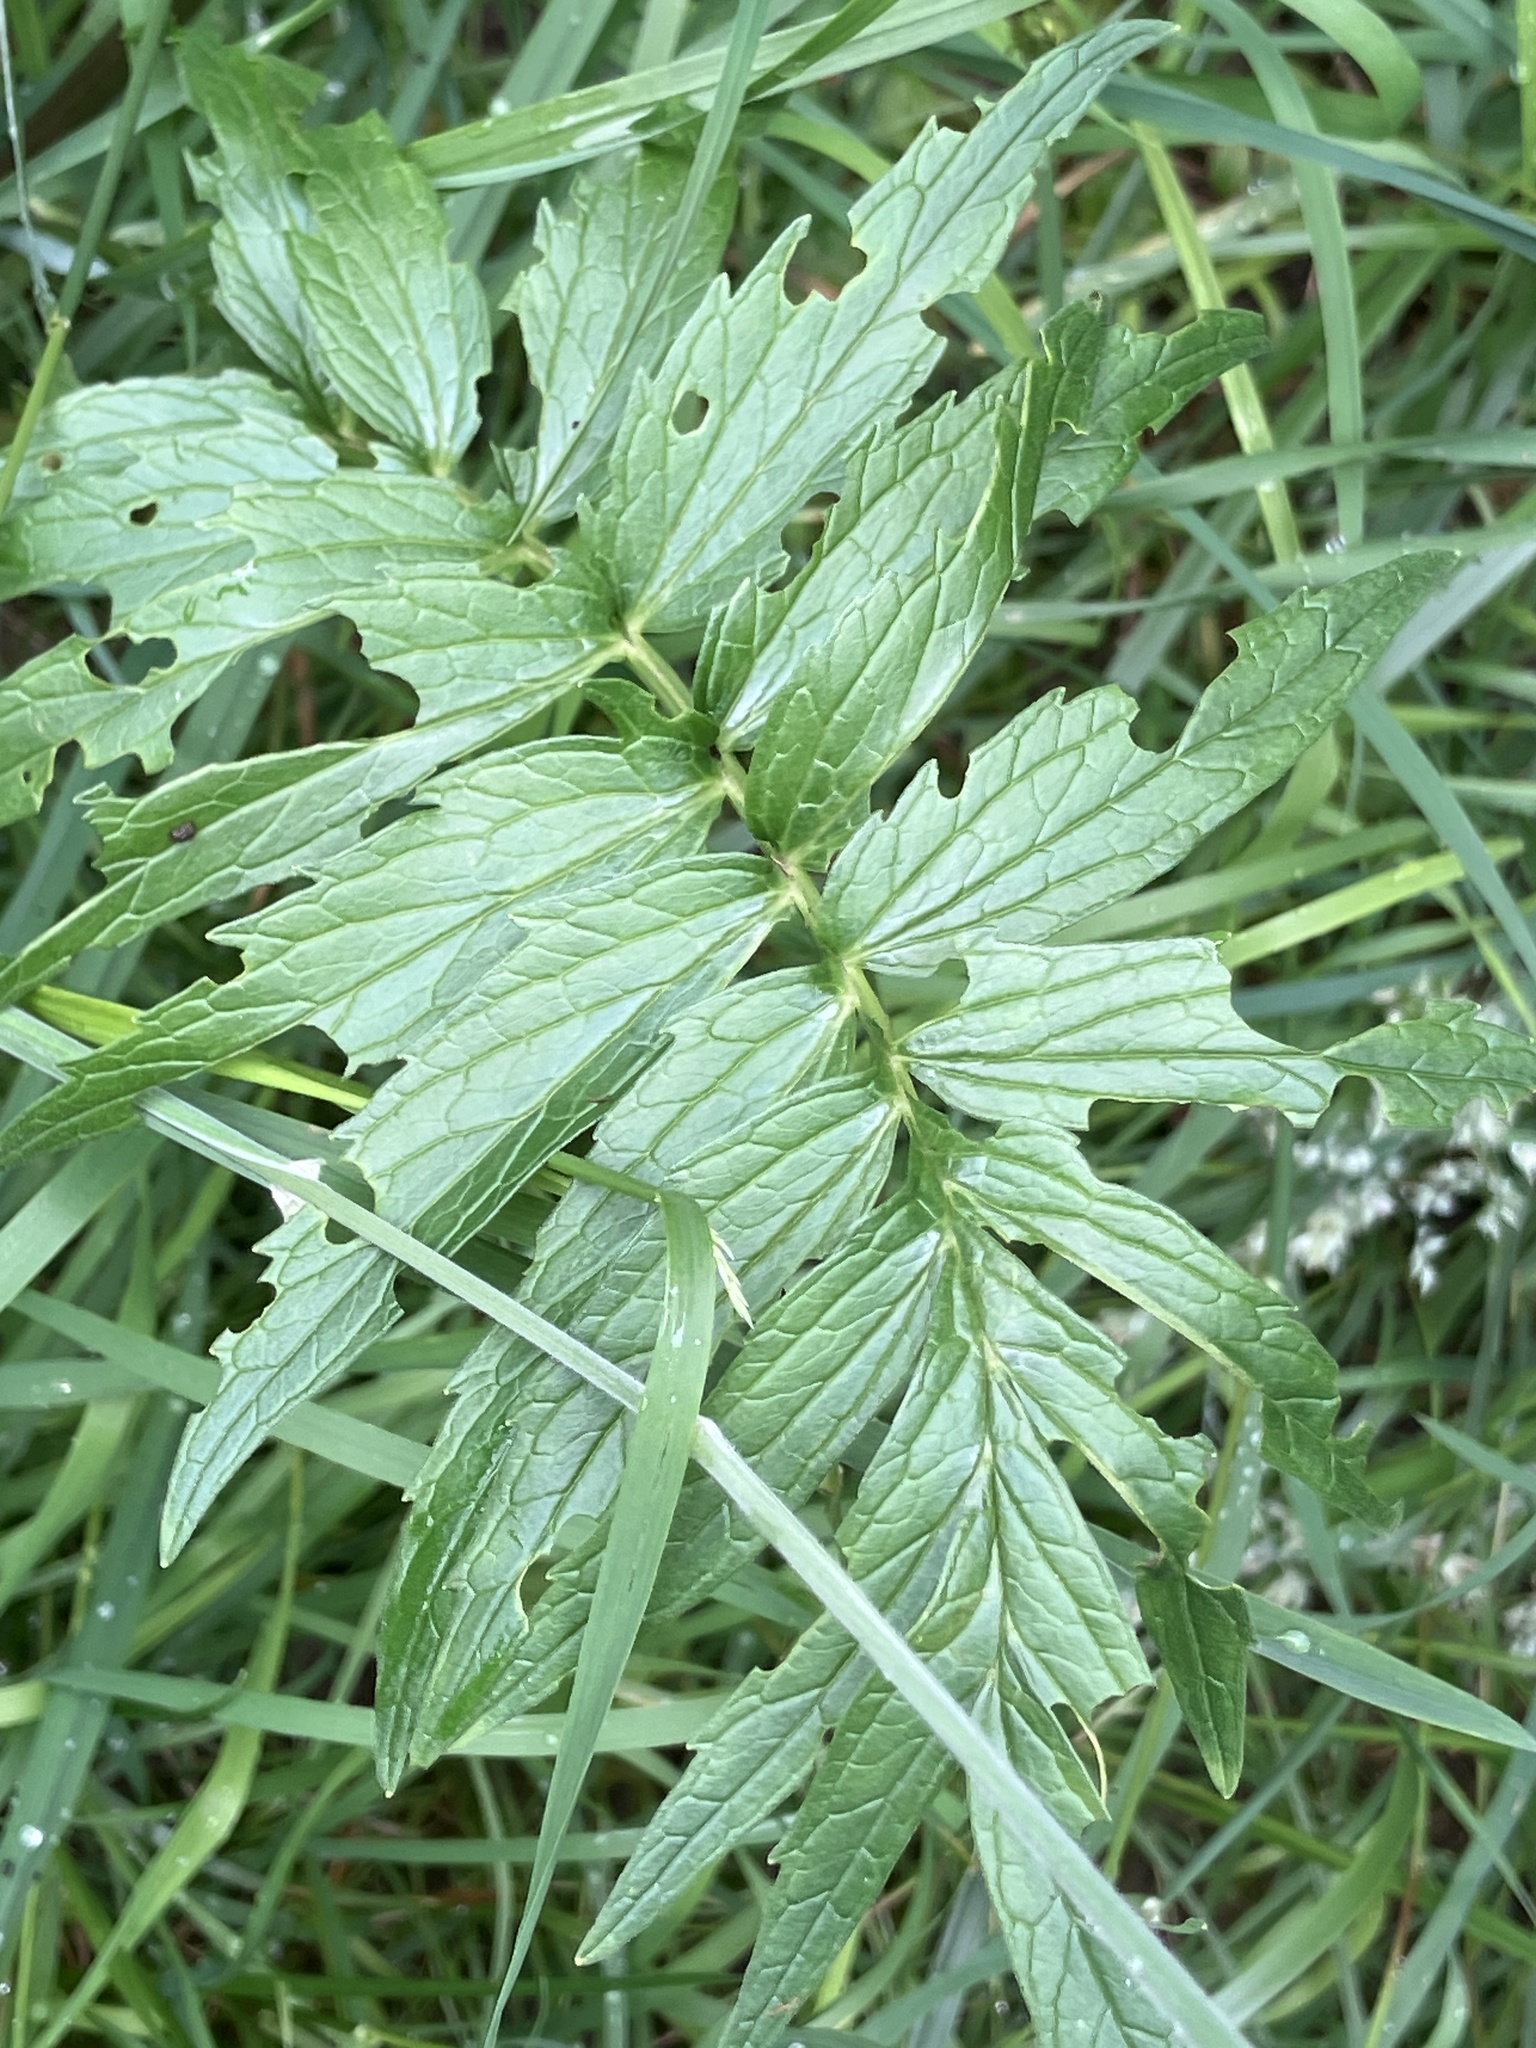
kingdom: Plantae
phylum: Tracheophyta
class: Magnoliopsida
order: Dipsacales
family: Caprifoliaceae
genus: Valeriana
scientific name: Valeriana officinalis
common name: Common valerian
